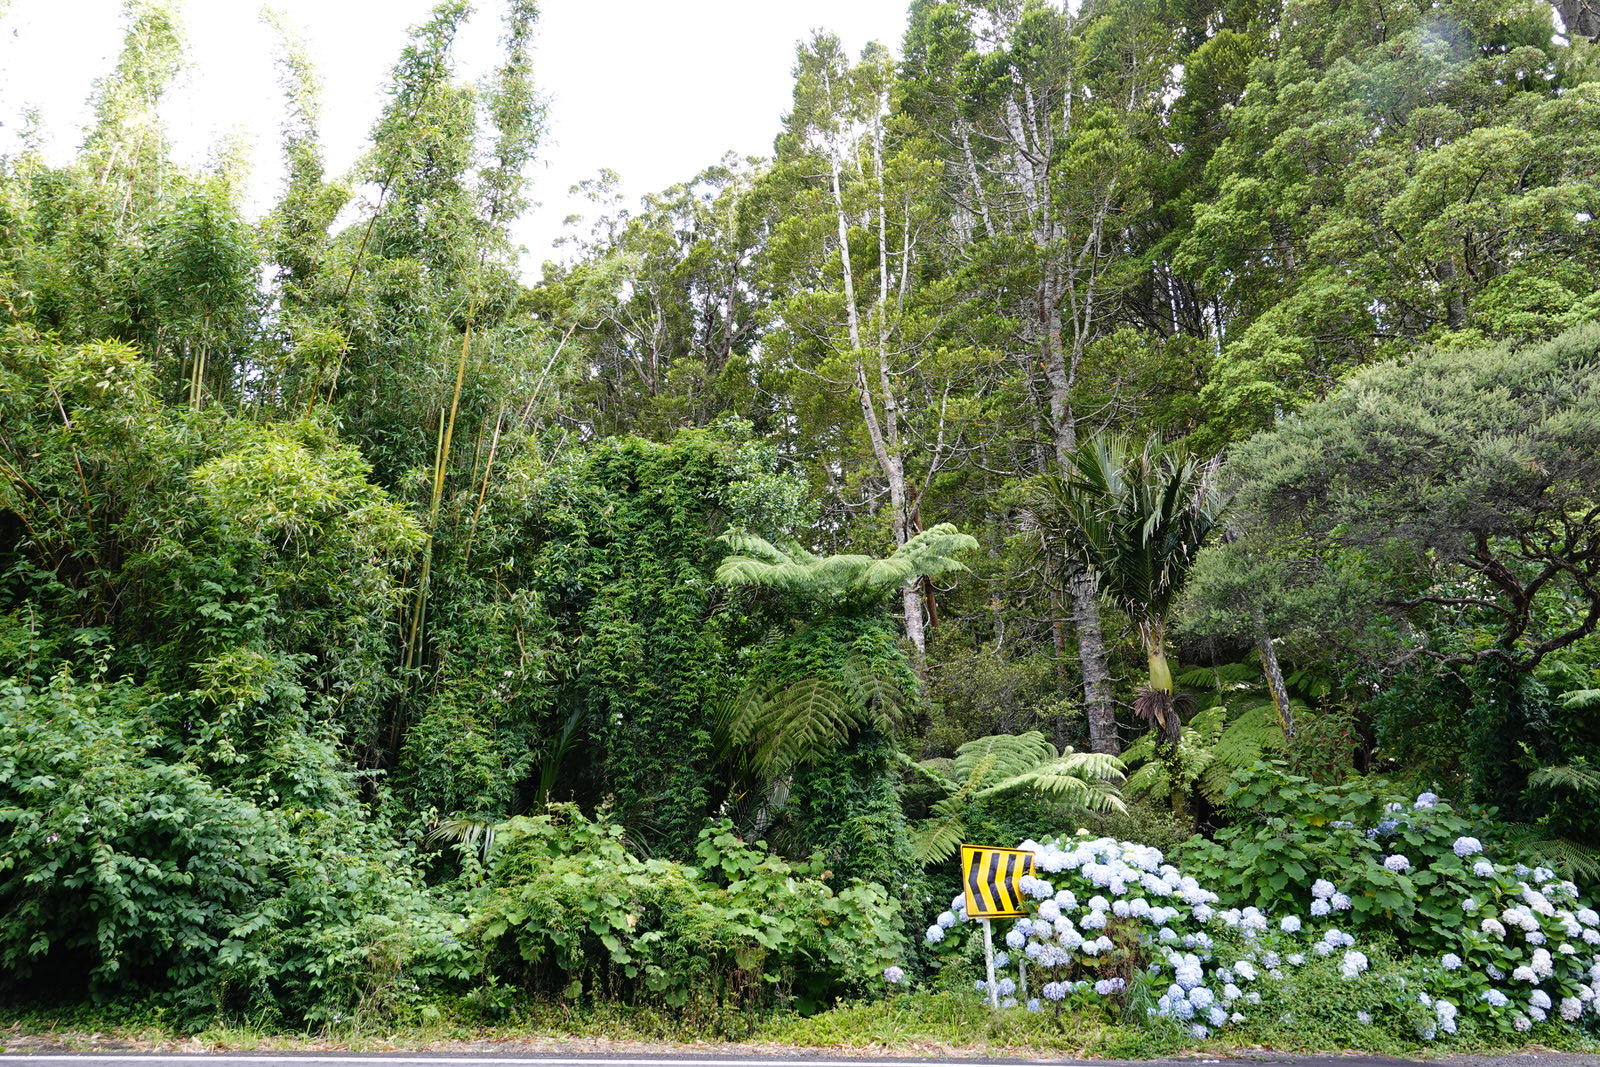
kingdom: Plantae
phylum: Tracheophyta
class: Magnoliopsida
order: Asterales
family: Asteraceae
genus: Roldana
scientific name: Roldana petasitis
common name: California-geranium
